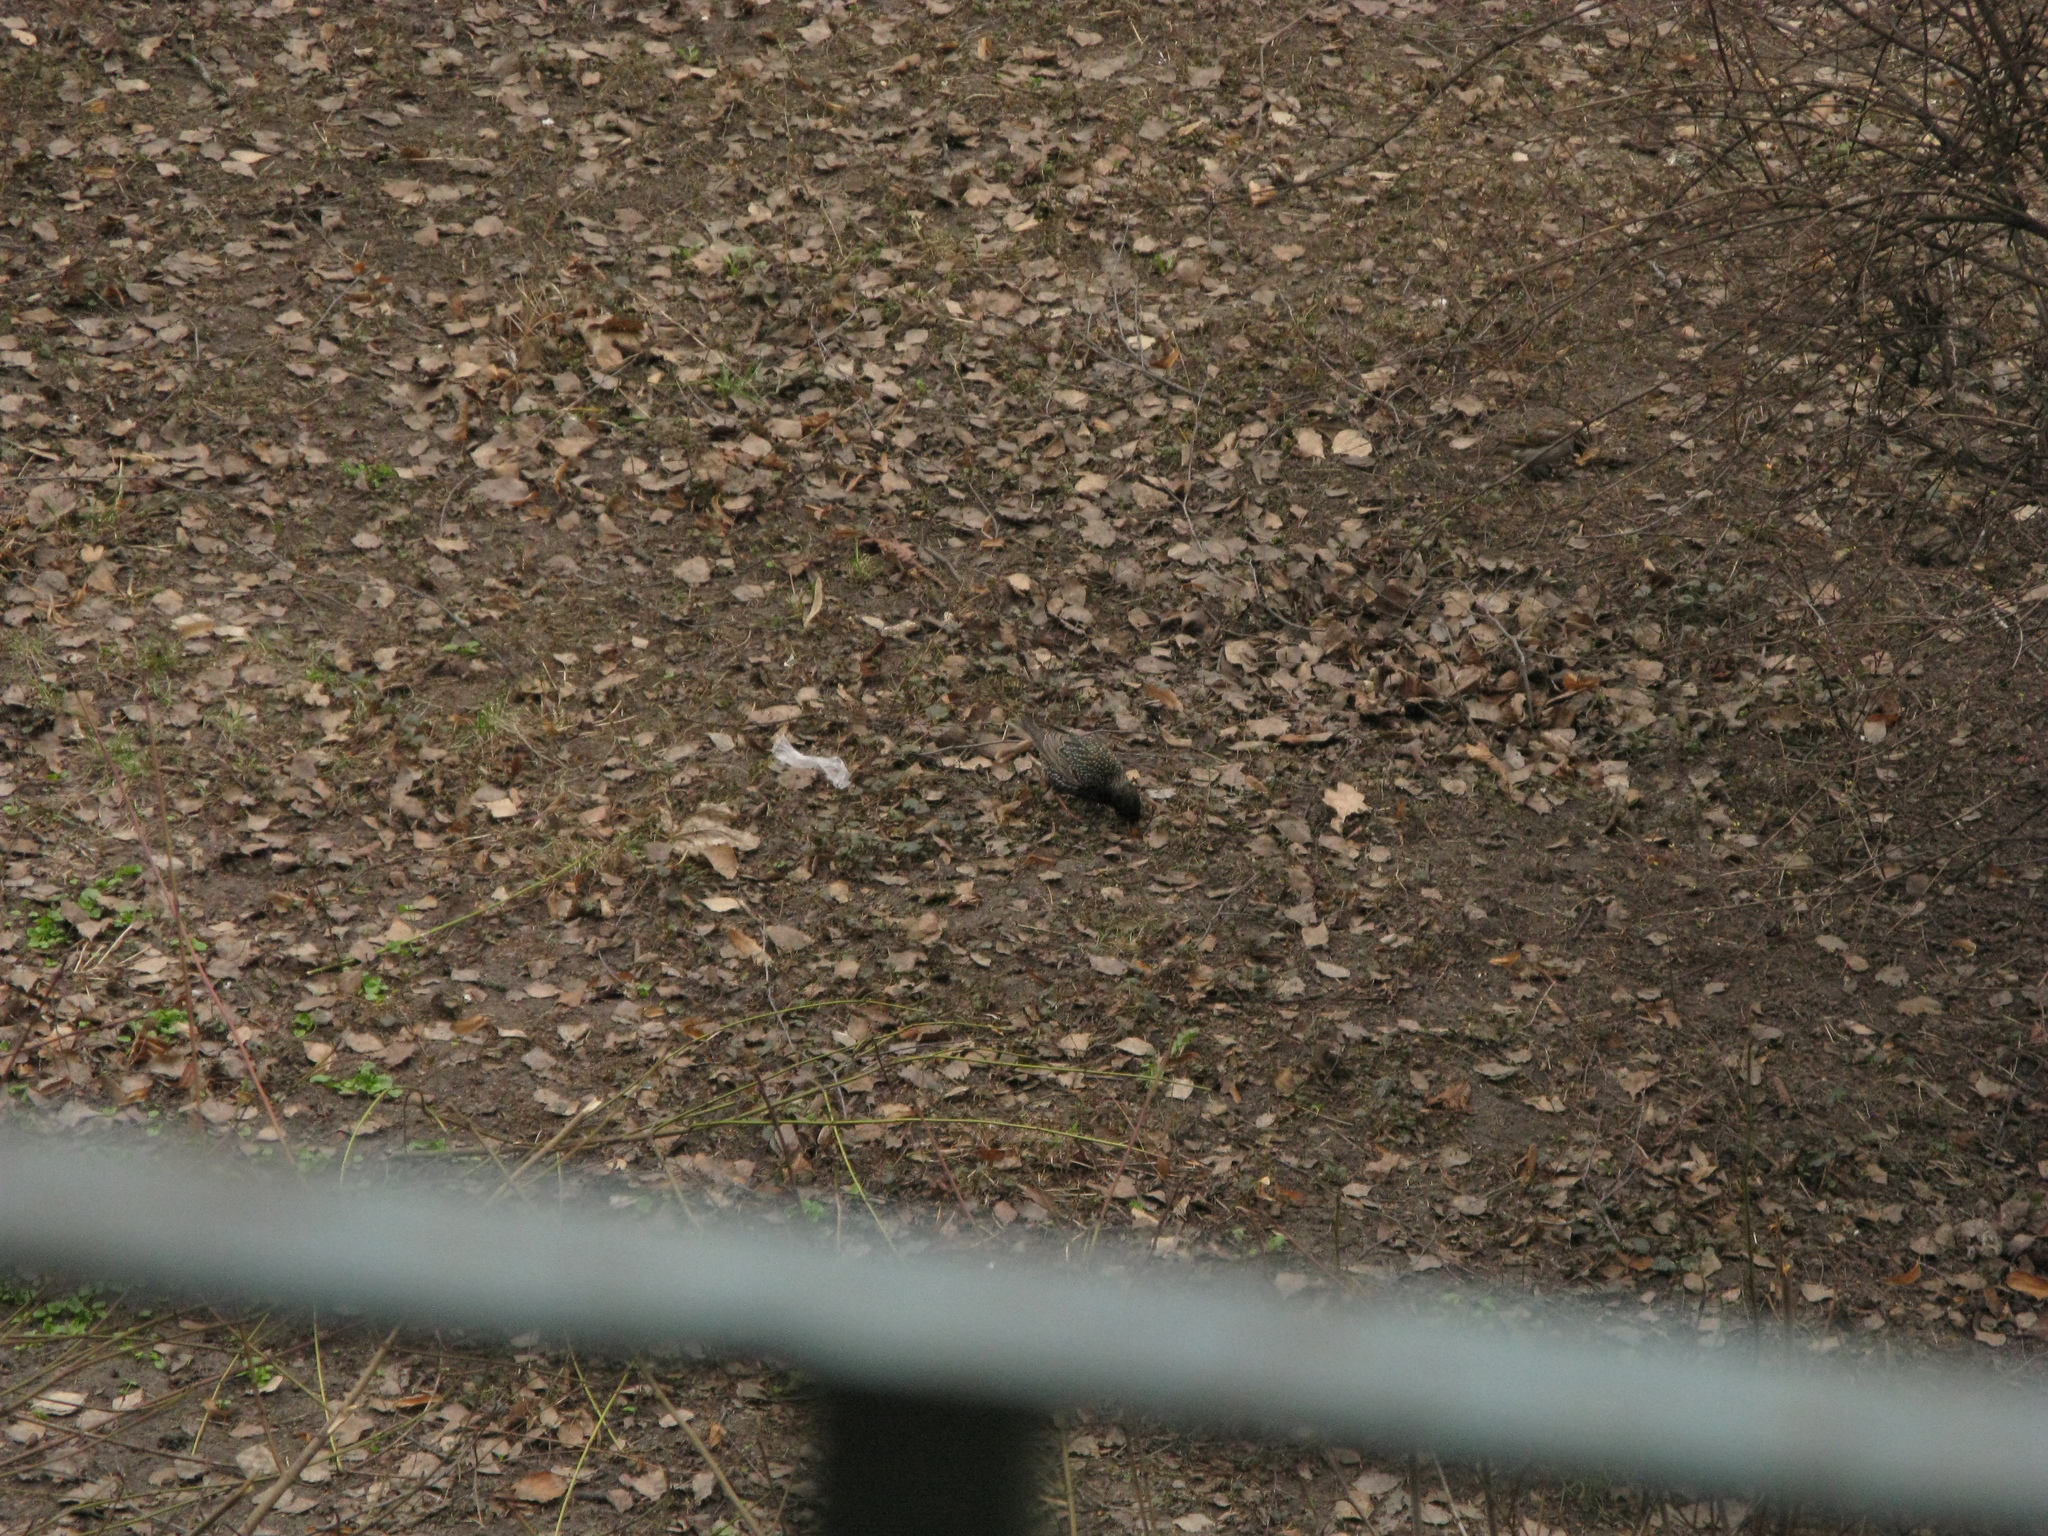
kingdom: Animalia
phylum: Chordata
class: Aves
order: Passeriformes
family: Sturnidae
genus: Sturnus
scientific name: Sturnus vulgaris
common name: Common starling
